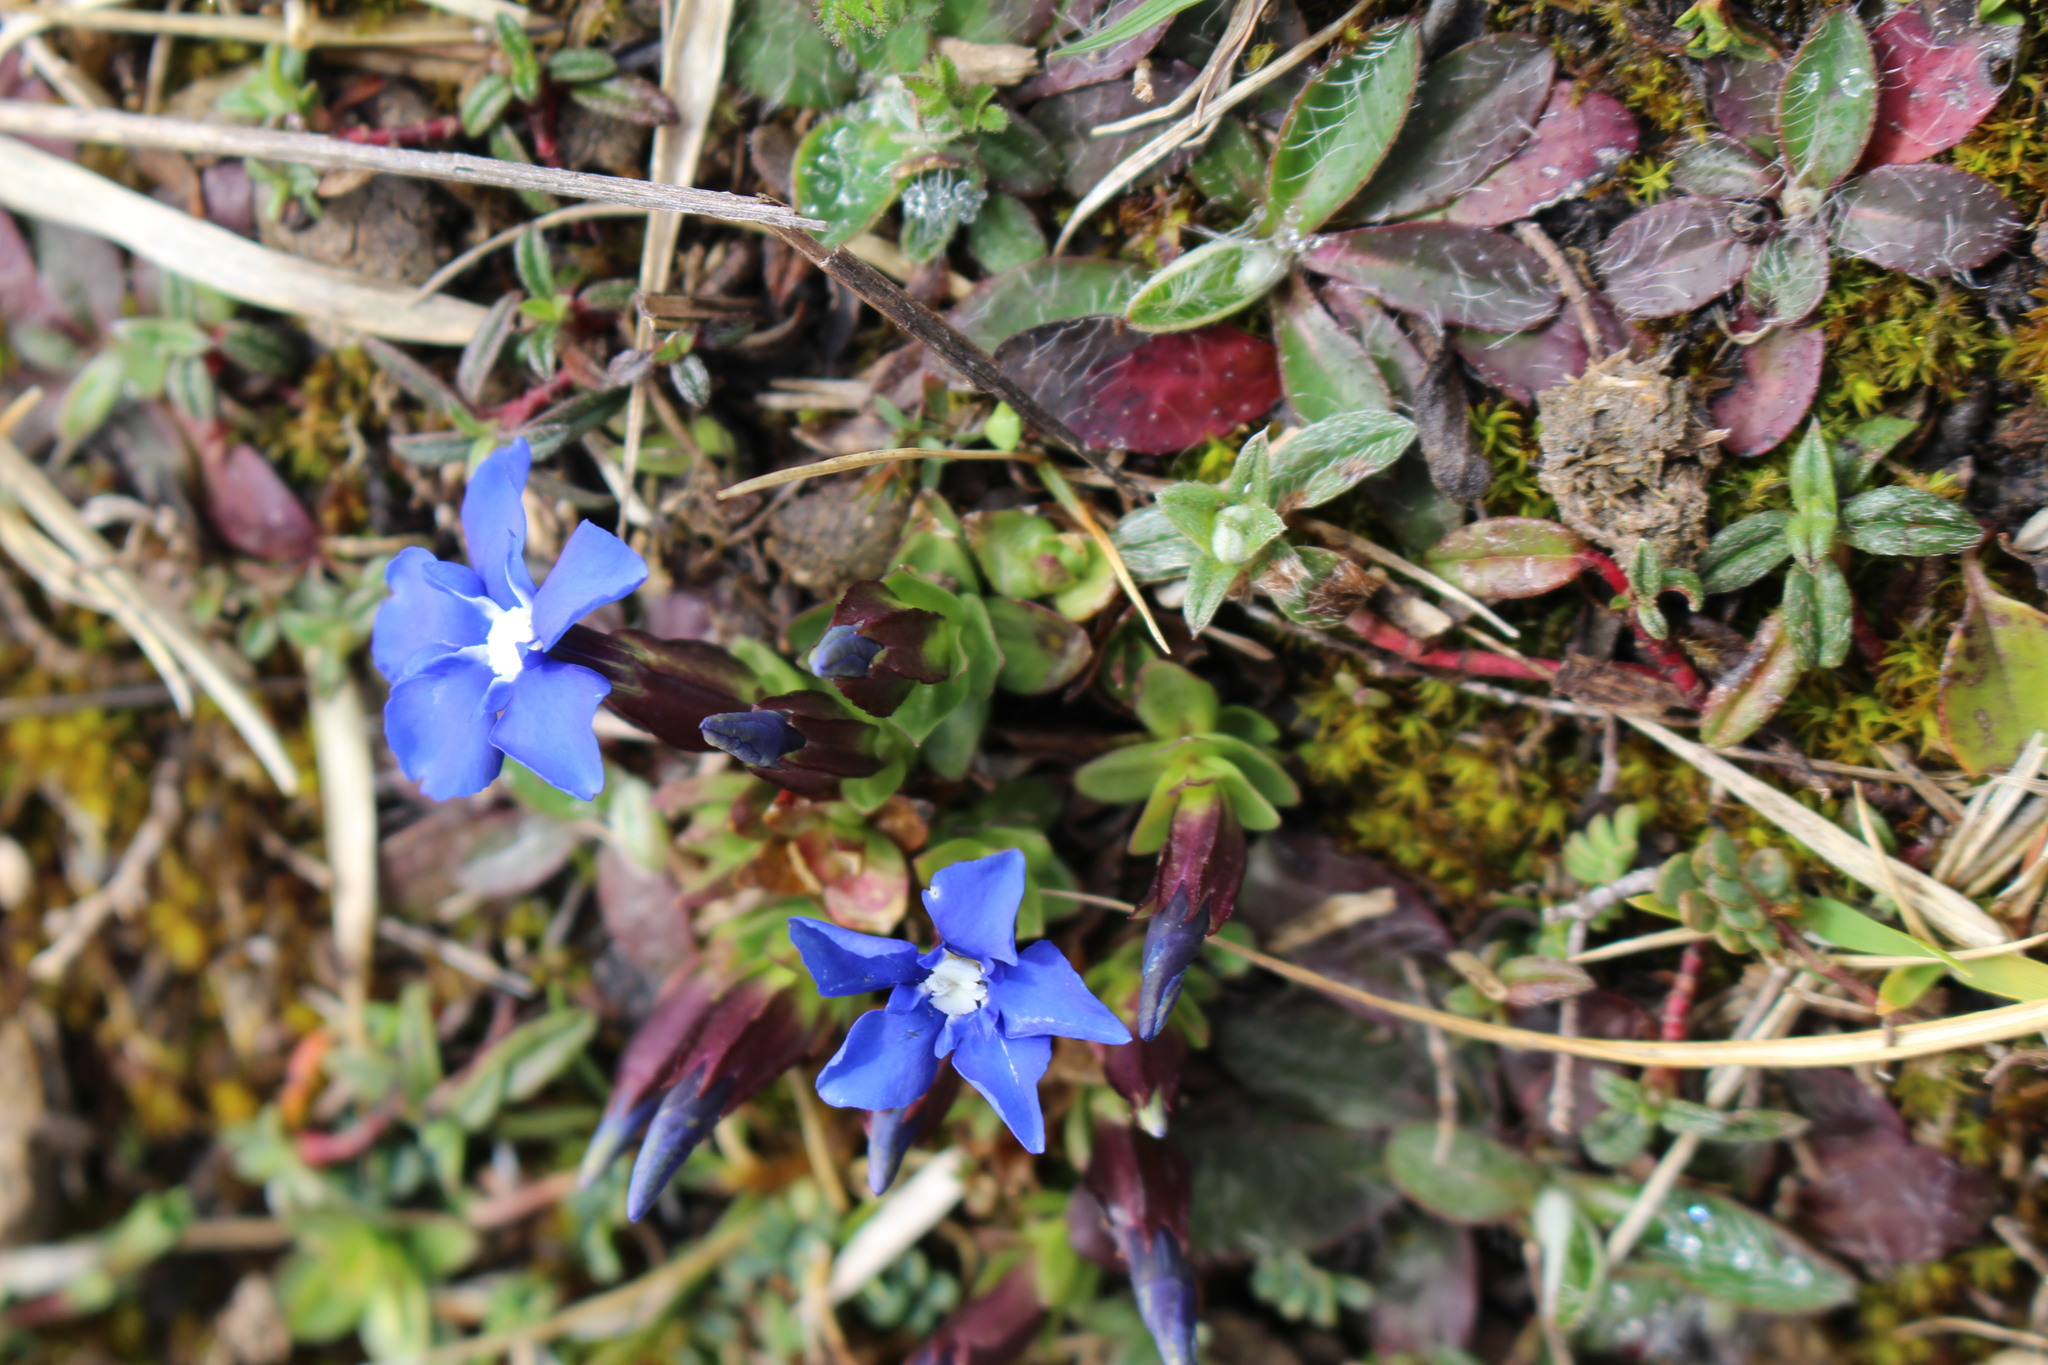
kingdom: Plantae
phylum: Tracheophyta
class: Magnoliopsida
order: Gentianales
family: Gentianaceae
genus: Gentiana
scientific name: Gentiana verna
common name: Spring gentian
